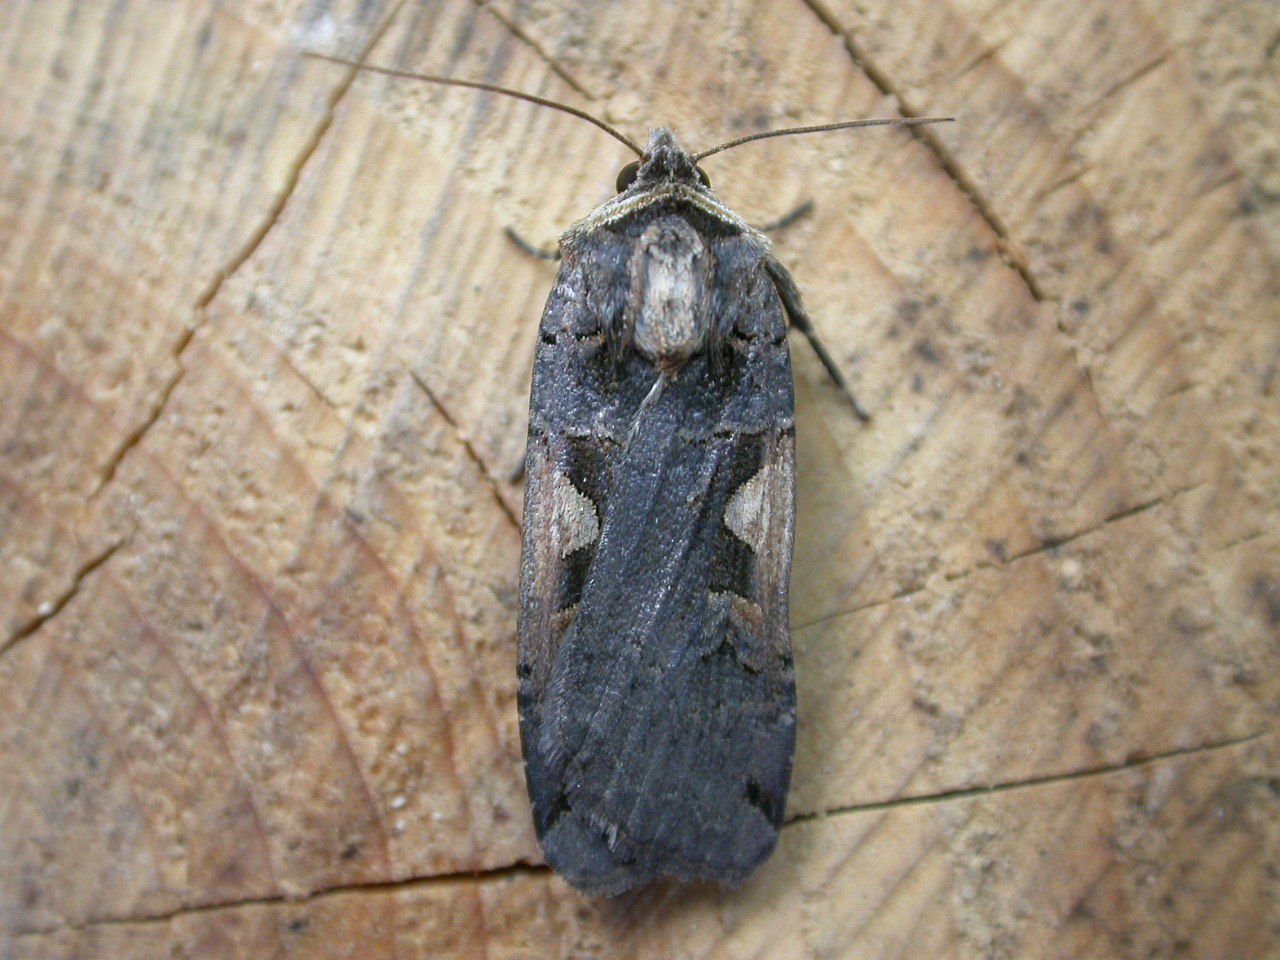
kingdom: Animalia
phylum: Arthropoda
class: Insecta
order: Lepidoptera
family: Noctuidae
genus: Xestia
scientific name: Xestia c-nigrum
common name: Setaceous hebrew character
